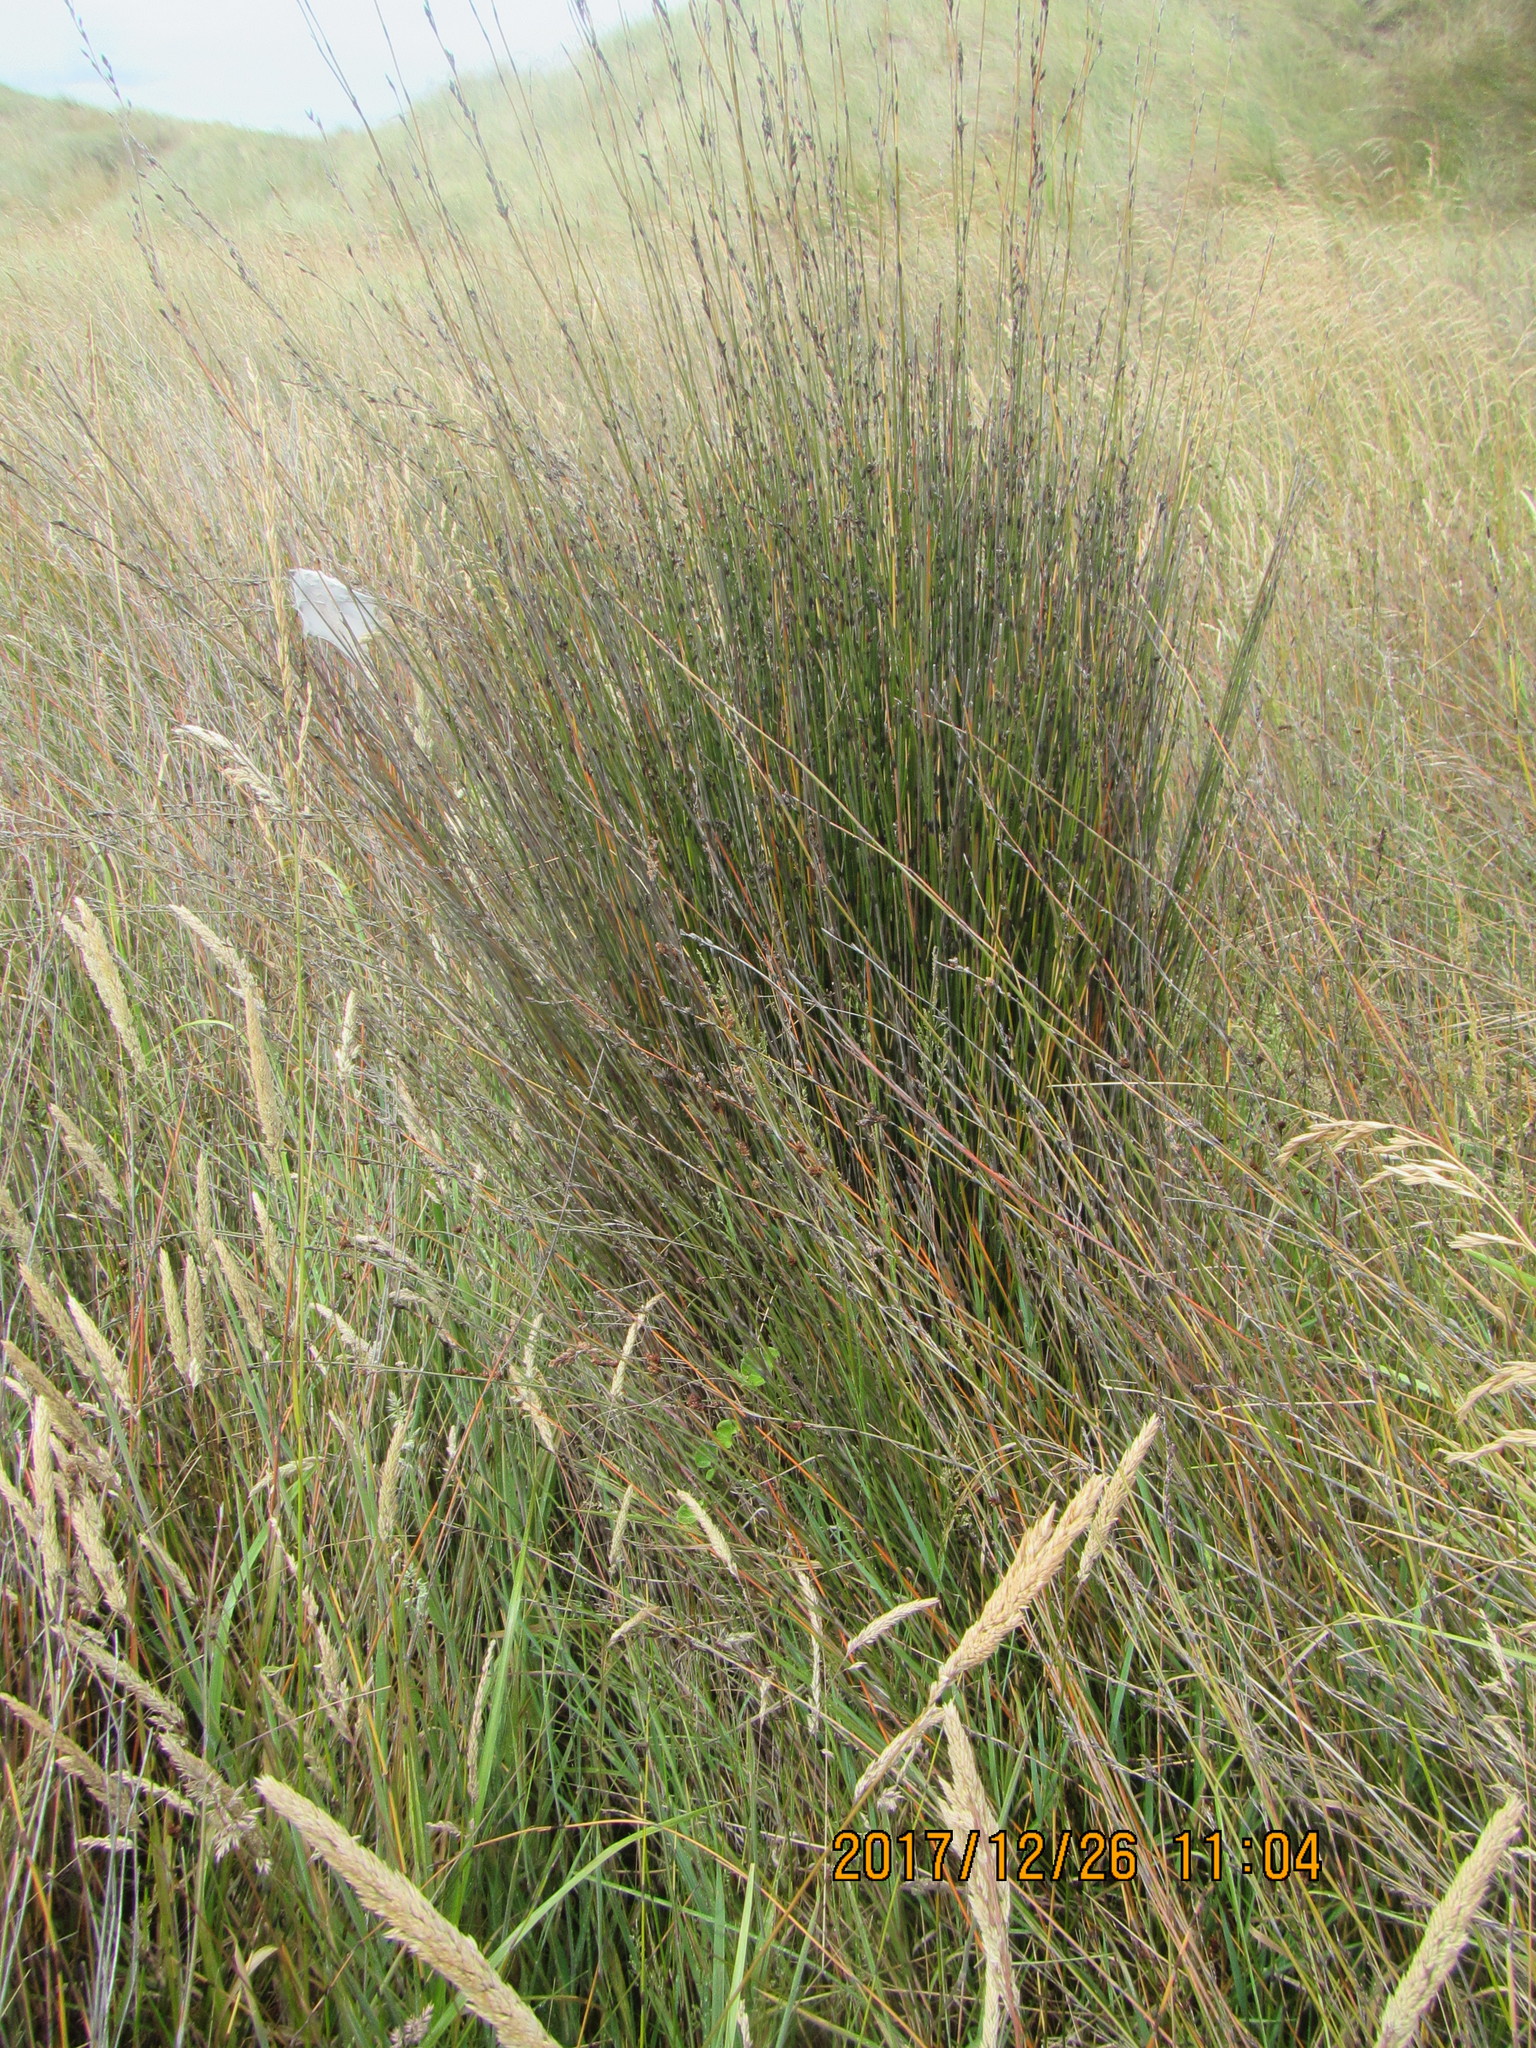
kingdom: Plantae
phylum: Tracheophyta
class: Liliopsida
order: Poales
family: Restionaceae
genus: Apodasmia
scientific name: Apodasmia similis
